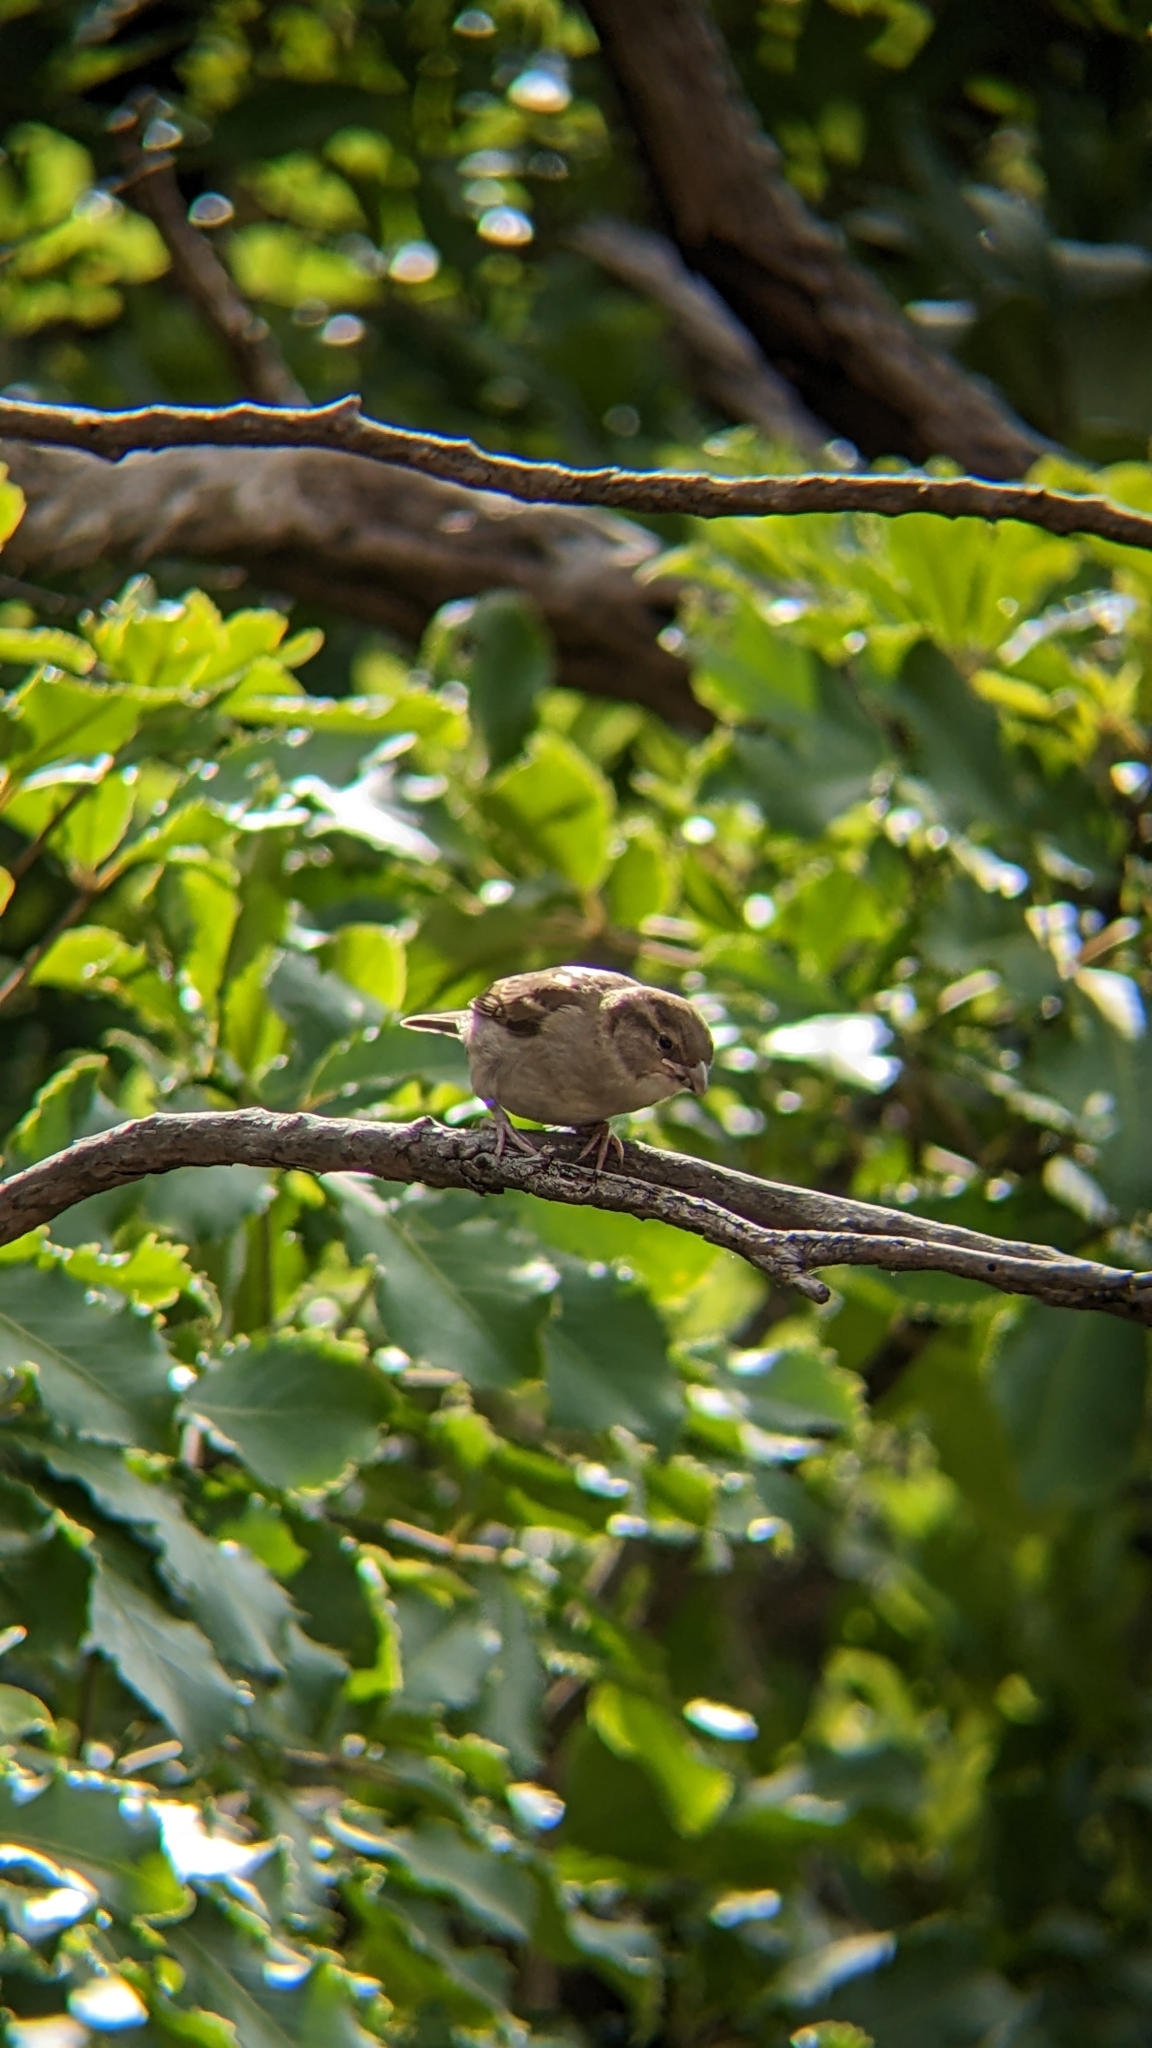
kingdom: Animalia
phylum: Chordata
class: Aves
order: Passeriformes
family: Passeridae
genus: Passer
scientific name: Passer domesticus
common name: House sparrow
